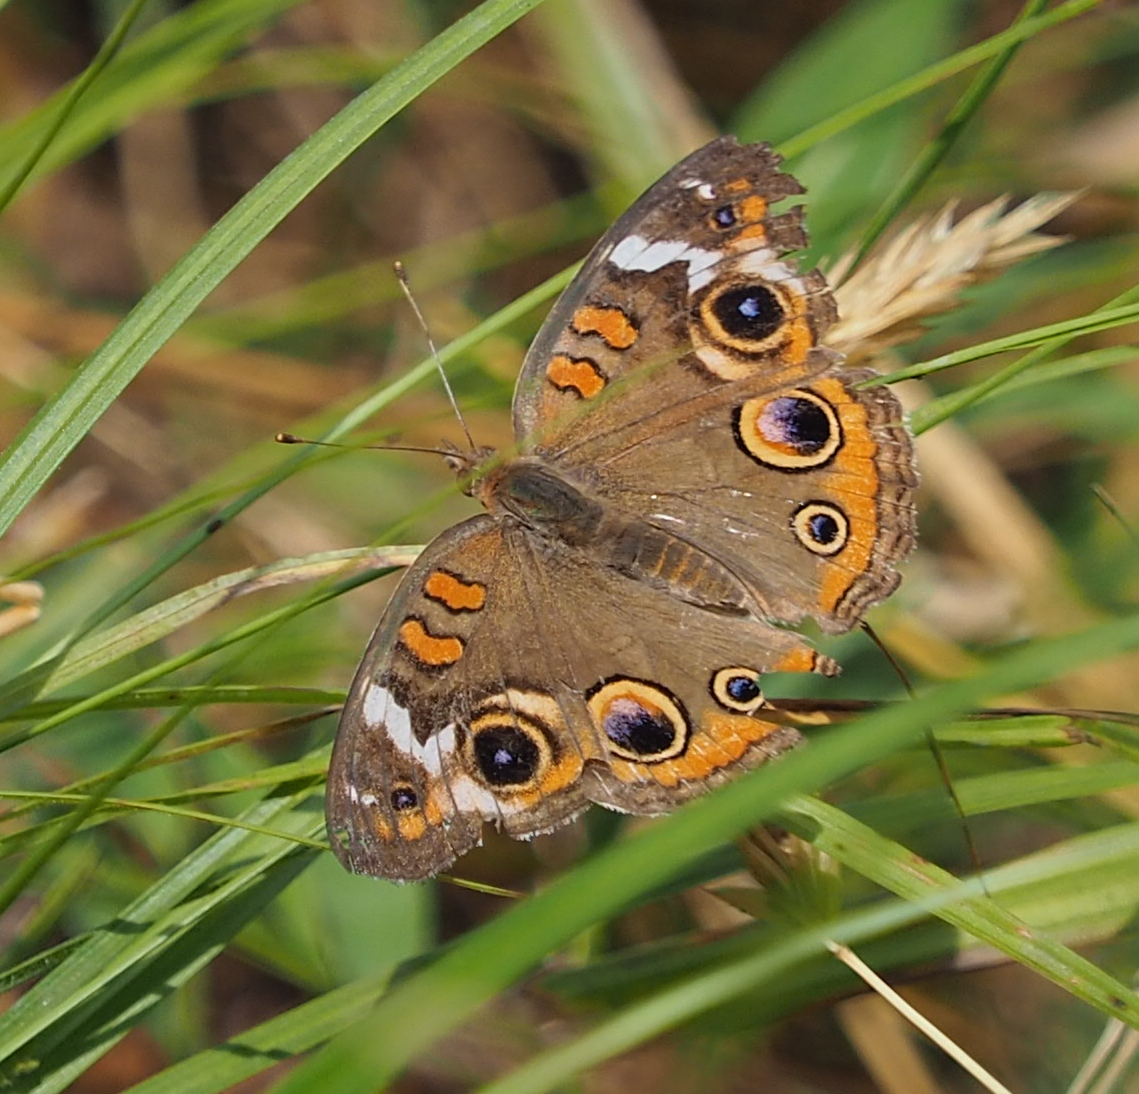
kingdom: Animalia
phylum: Arthropoda
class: Insecta
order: Lepidoptera
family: Nymphalidae
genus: Junonia
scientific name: Junonia coenia
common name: Common buckeye
